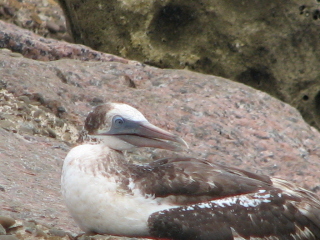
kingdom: Animalia
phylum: Chordata
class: Aves
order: Suliformes
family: Sulidae
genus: Morus
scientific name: Morus bassanus
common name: Northern gannet
